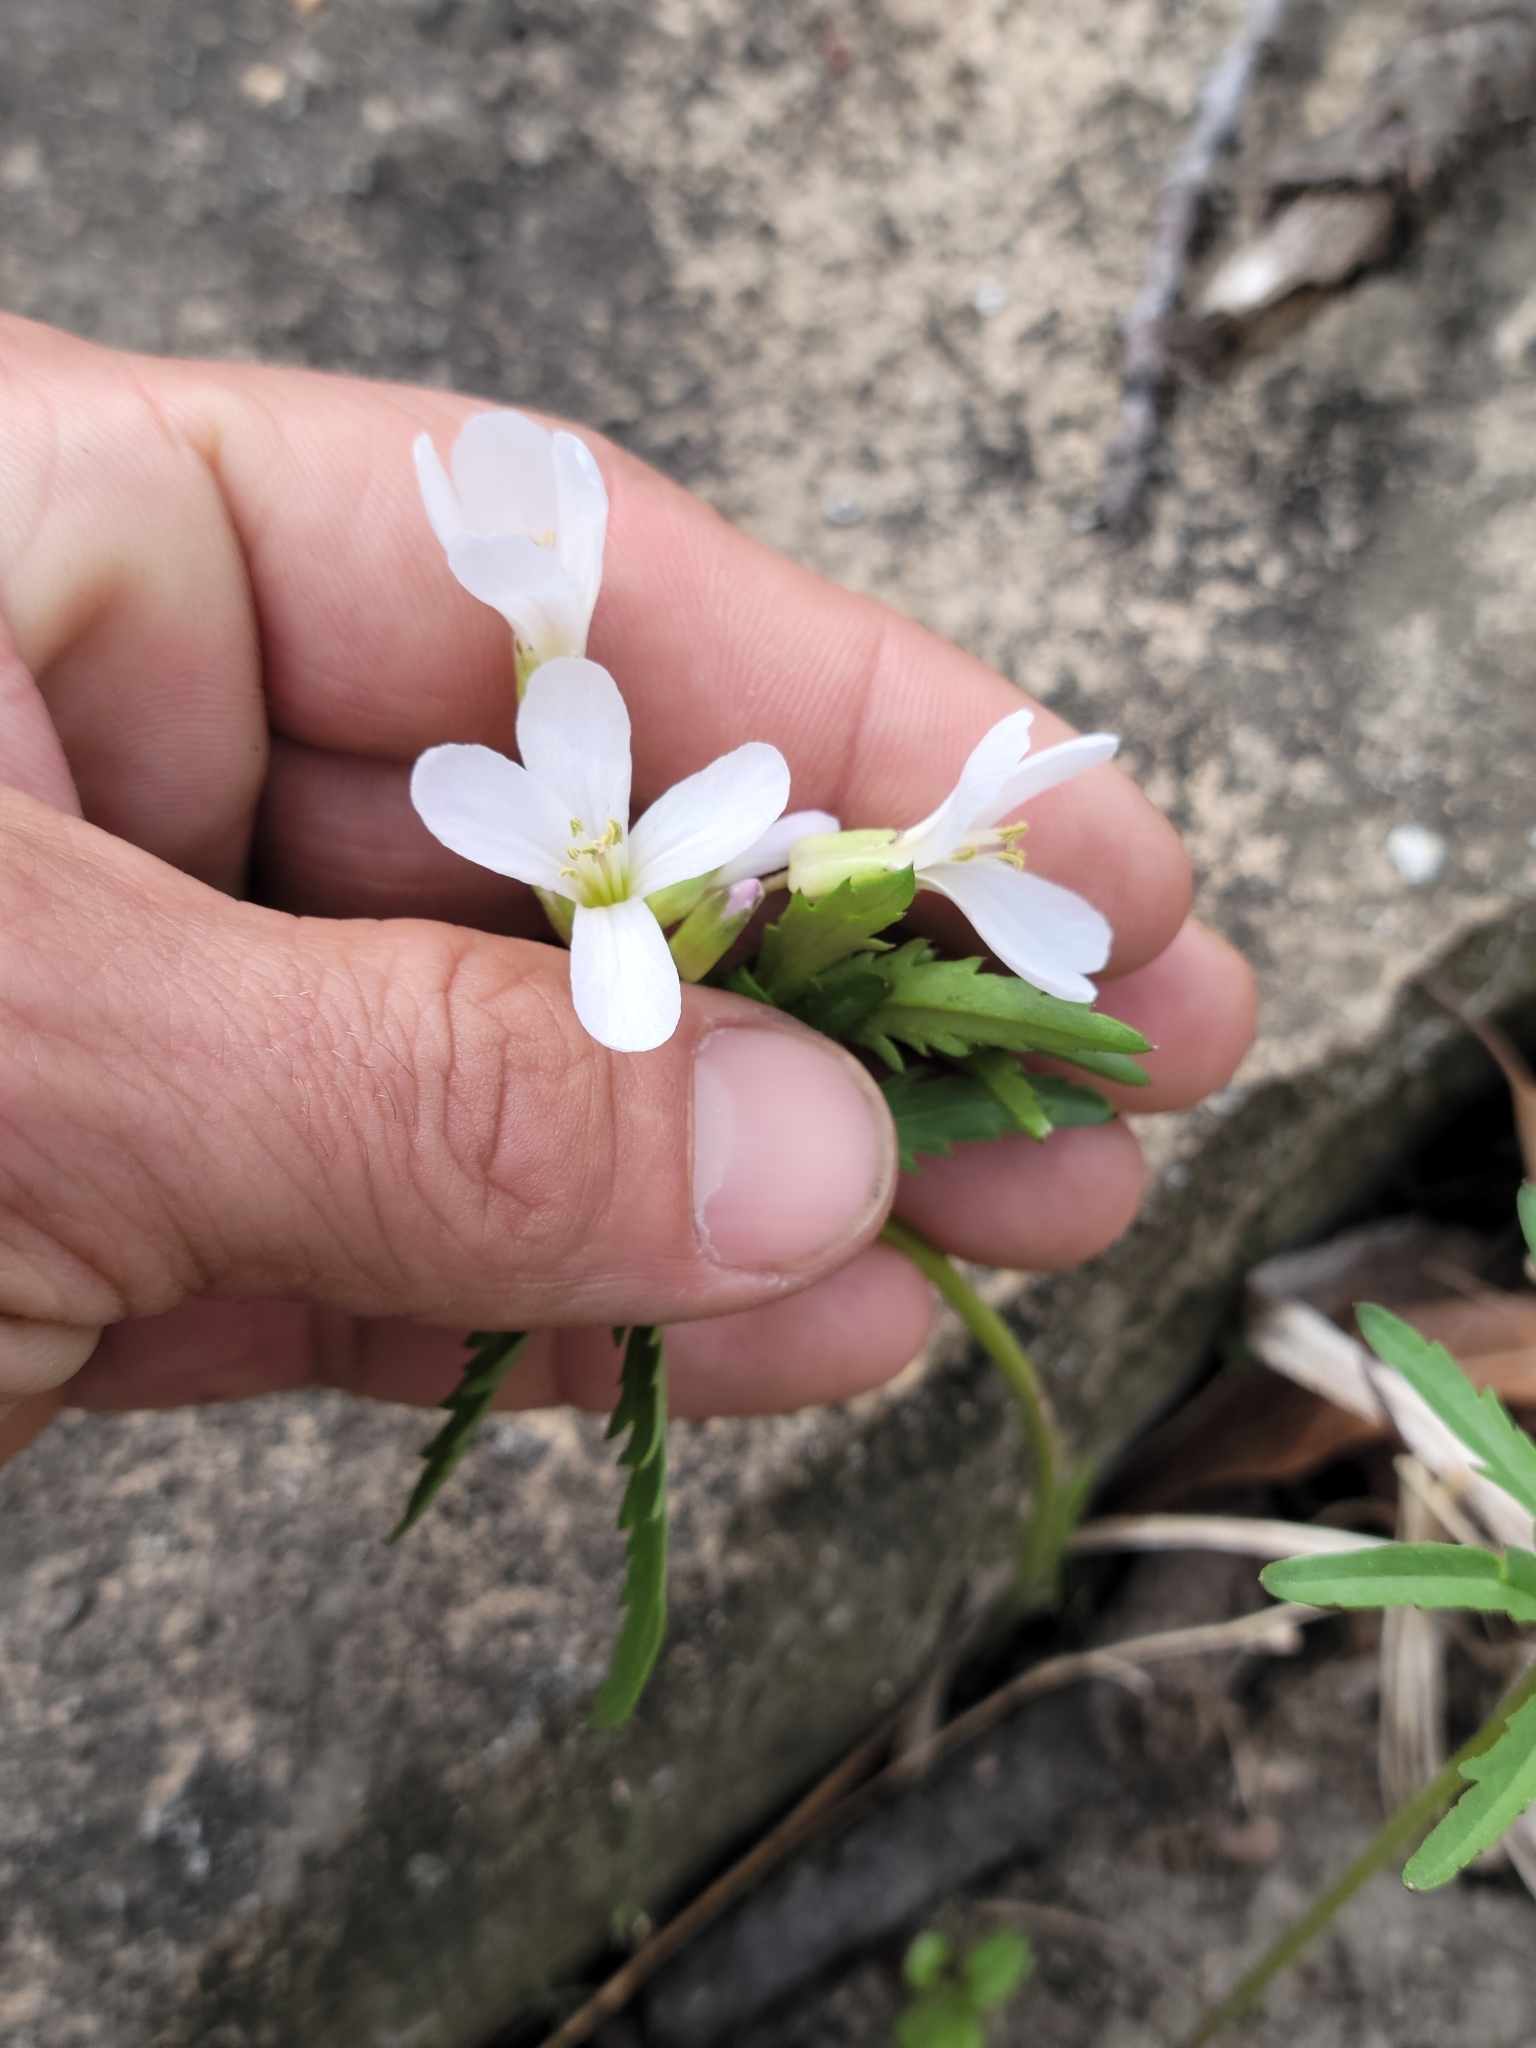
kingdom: Plantae
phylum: Tracheophyta
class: Magnoliopsida
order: Brassicales
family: Brassicaceae
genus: Cardamine
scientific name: Cardamine concatenata
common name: Cut-leaf toothcup
